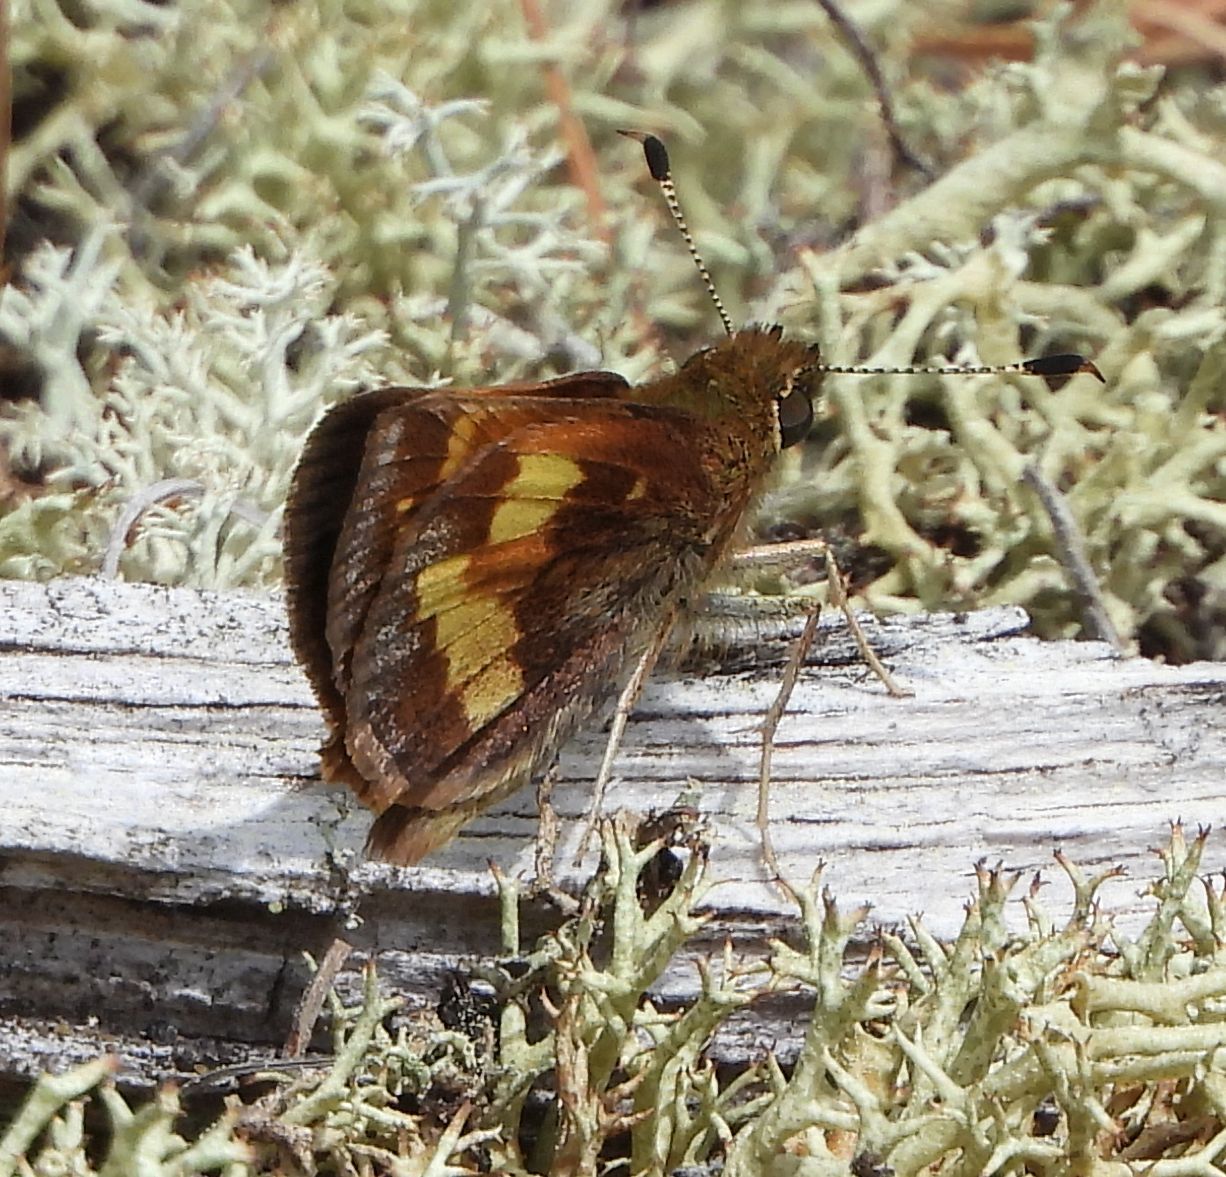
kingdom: Animalia
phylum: Arthropoda
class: Insecta
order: Lepidoptera
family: Hesperiidae
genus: Lon
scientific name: Lon hobomok
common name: Hobomok skipper
